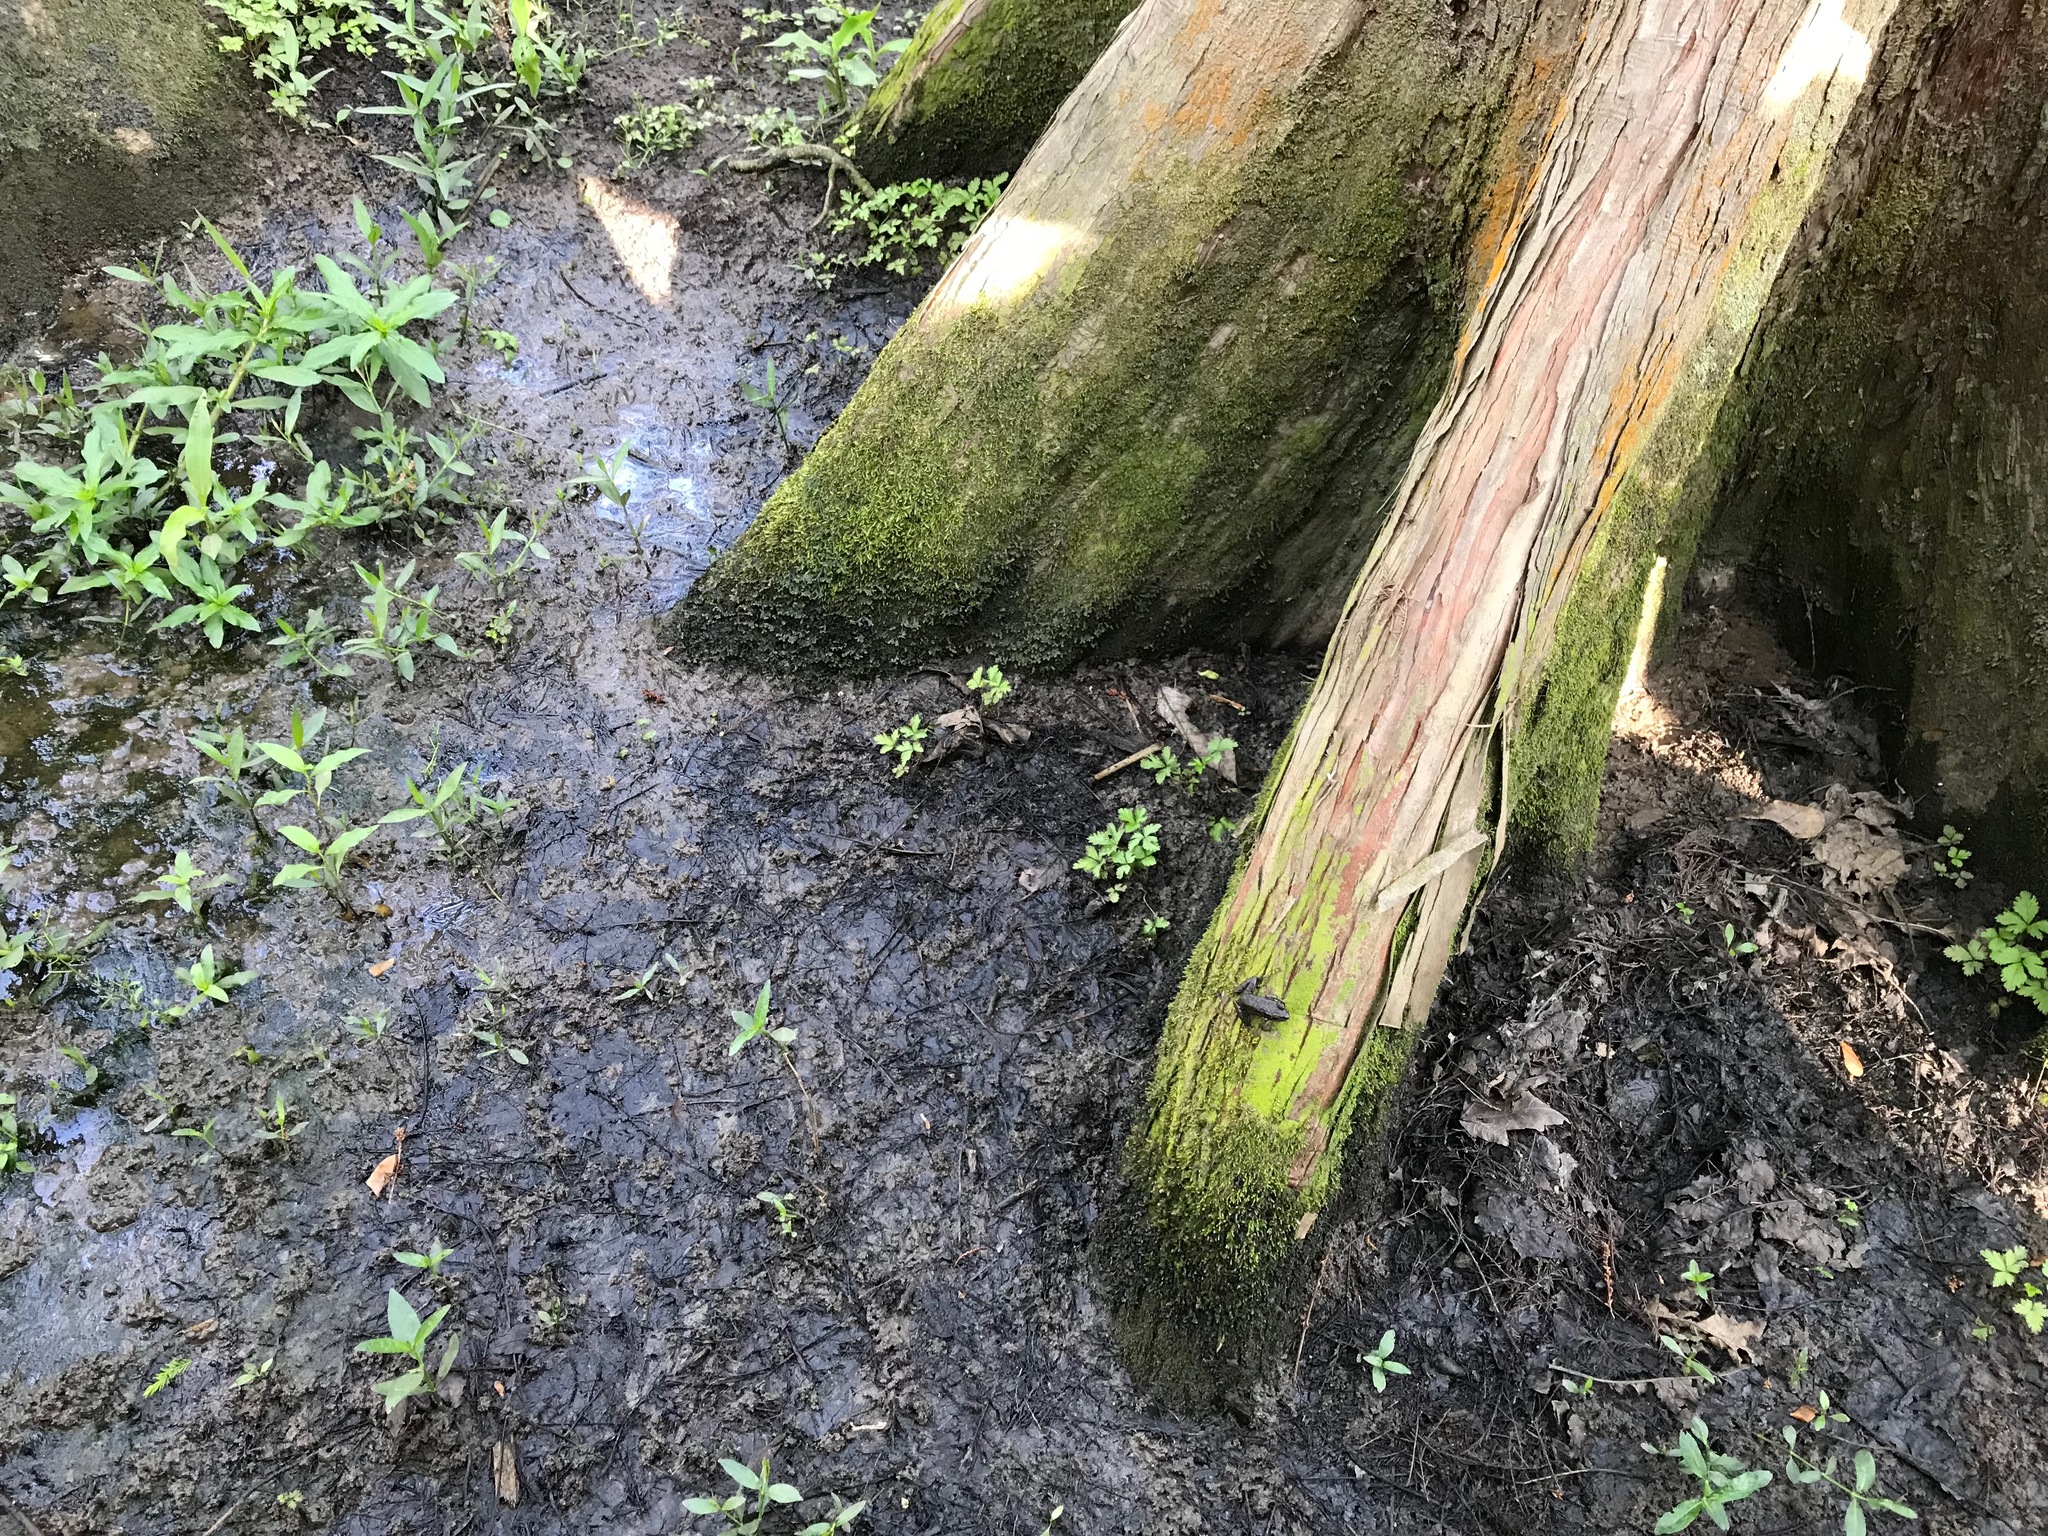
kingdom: Animalia
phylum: Chordata
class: Amphibia
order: Anura
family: Ranidae
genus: Lithobates
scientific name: Lithobates clamitans
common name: Green frog
